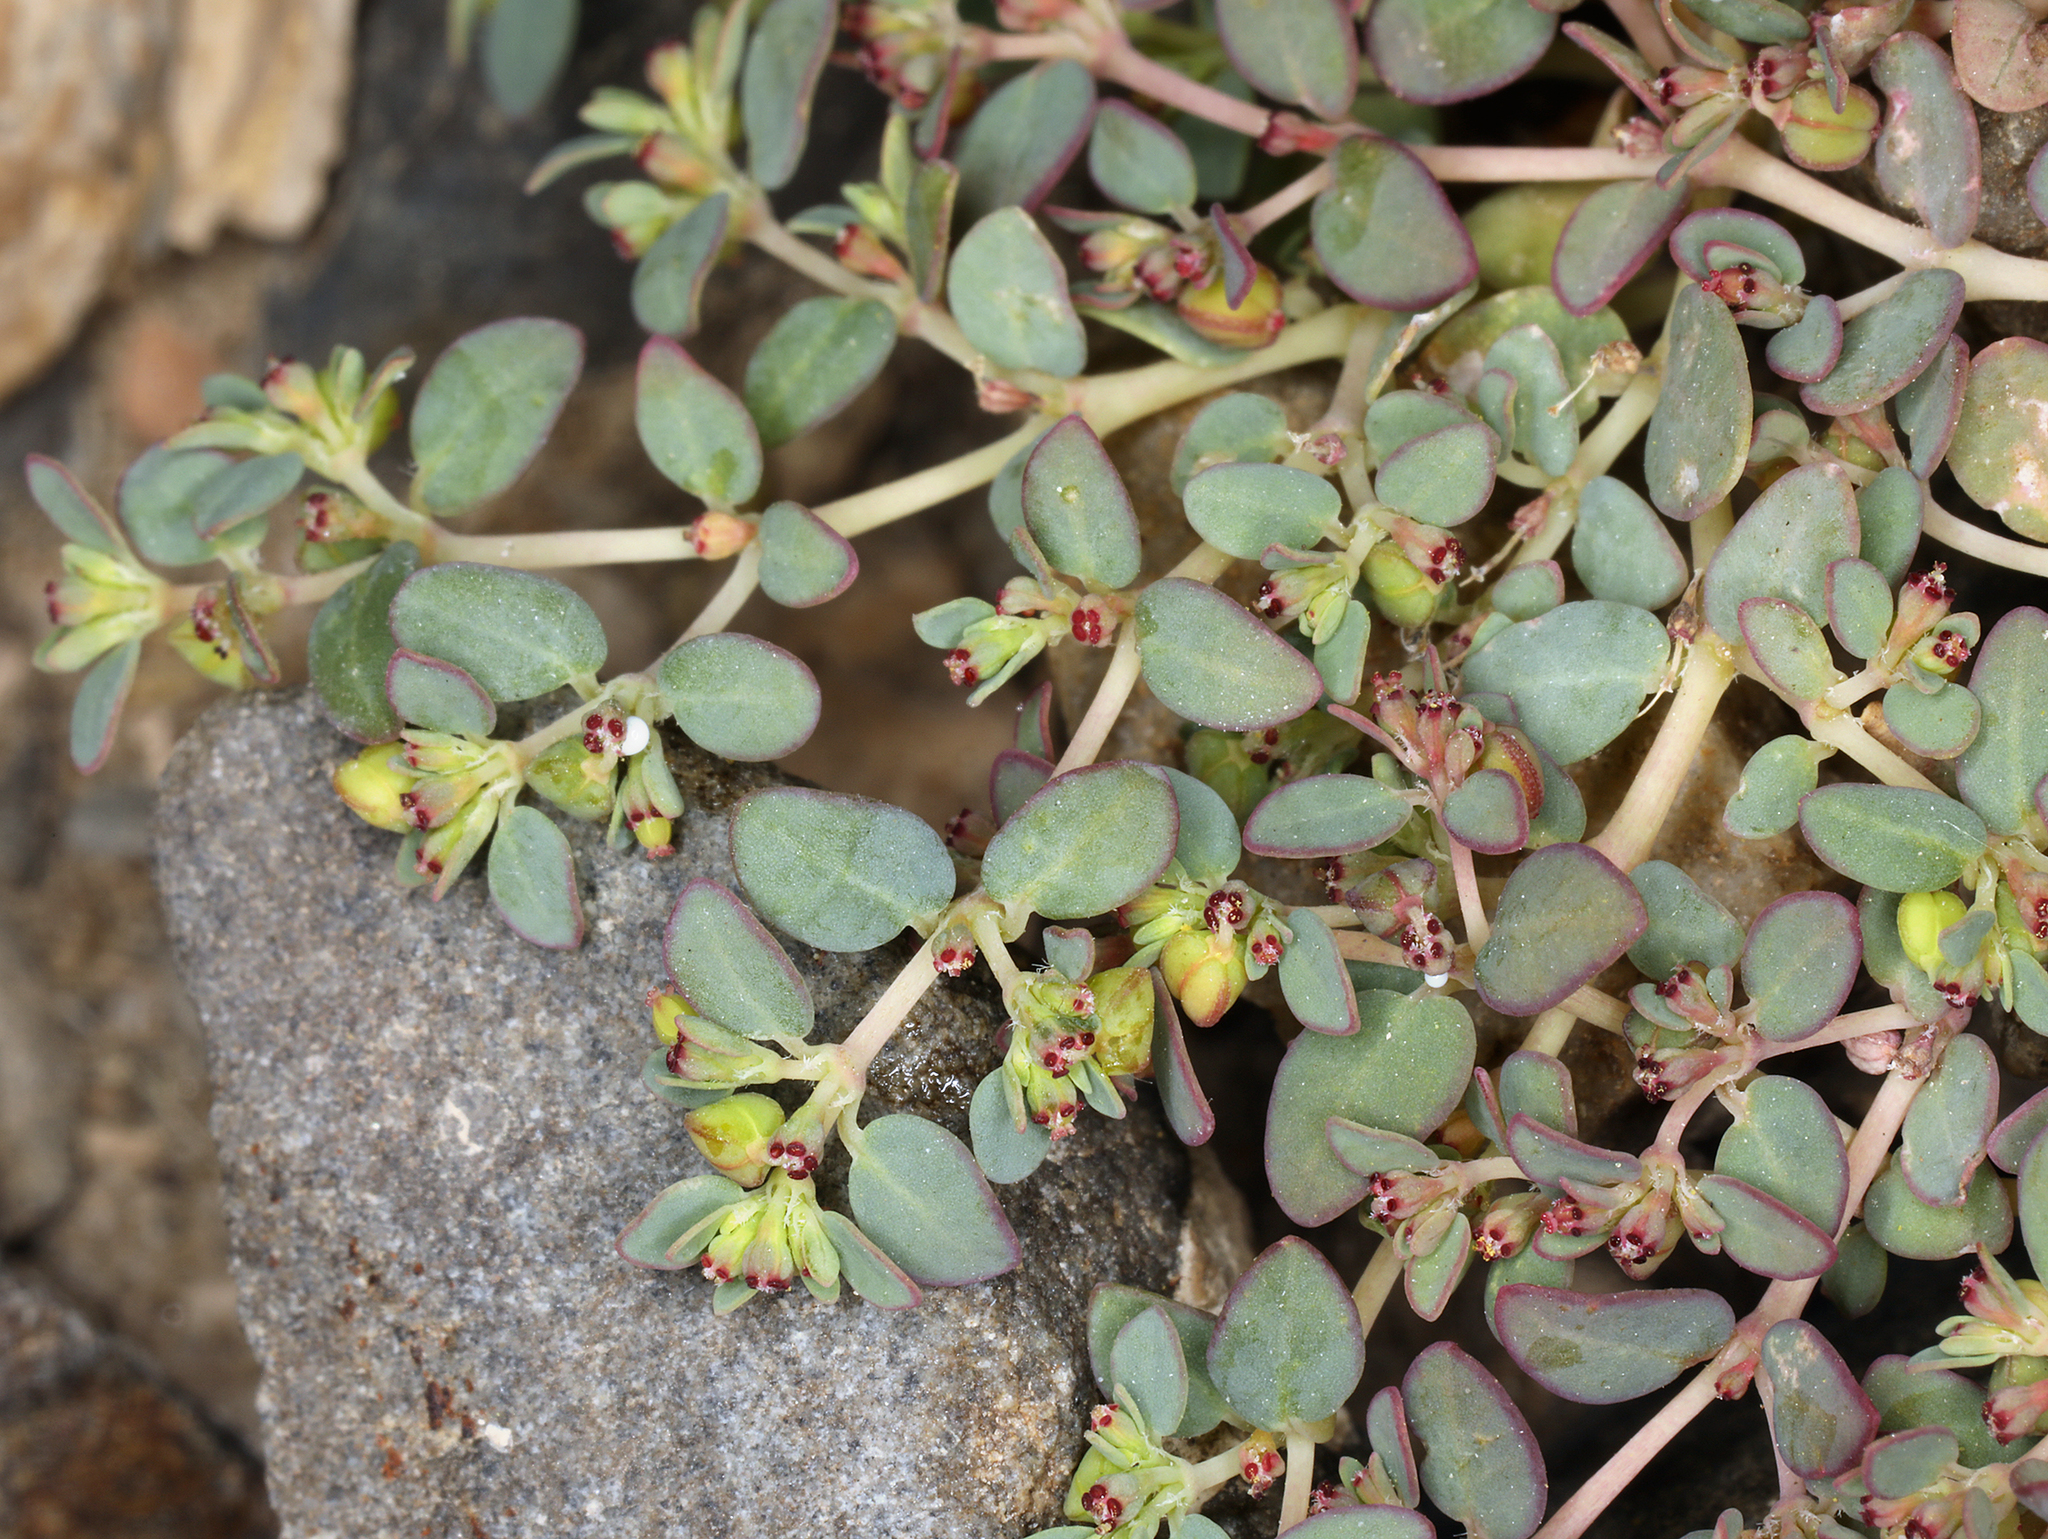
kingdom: Plantae
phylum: Tracheophyta
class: Magnoliopsida
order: Malpighiales
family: Euphorbiaceae
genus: Euphorbia
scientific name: Euphorbia micromera
